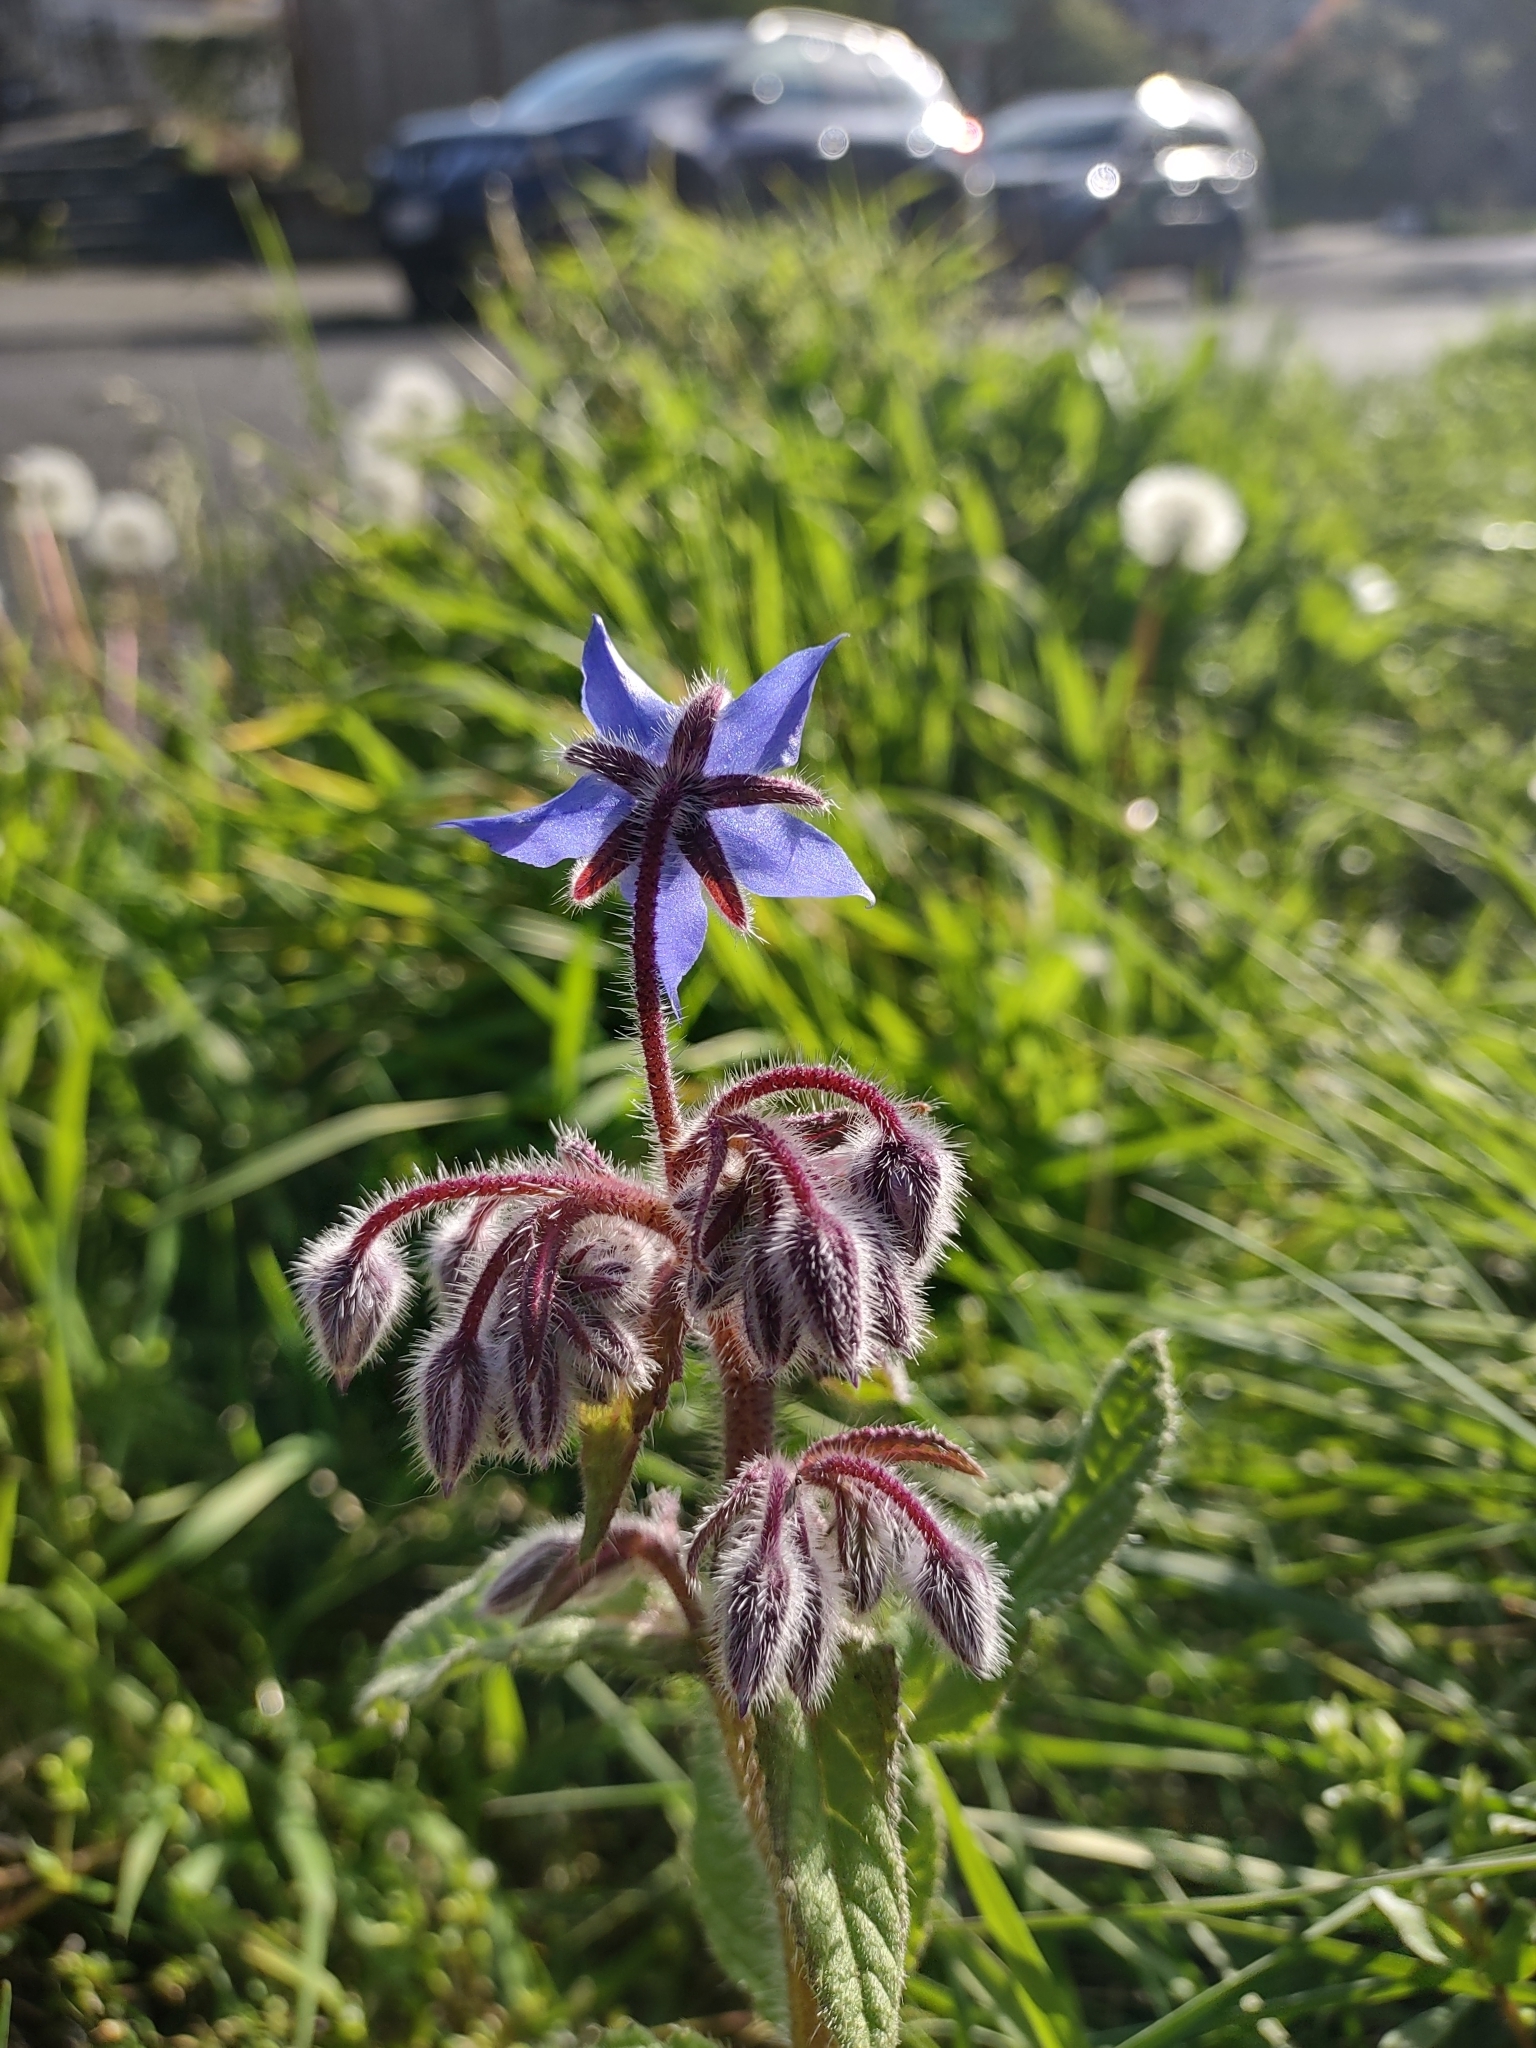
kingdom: Plantae
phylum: Tracheophyta
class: Magnoliopsida
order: Boraginales
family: Boraginaceae
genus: Borago
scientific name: Borago officinalis
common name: Borage
